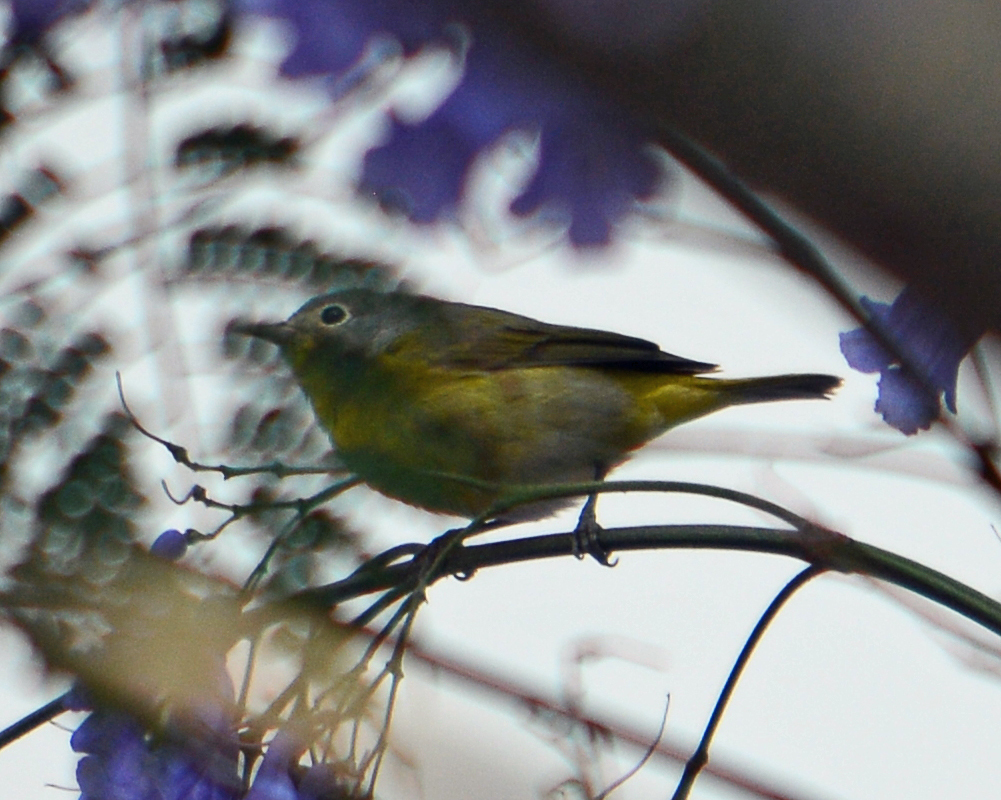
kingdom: Animalia
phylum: Chordata
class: Aves
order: Passeriformes
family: Parulidae
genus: Leiothlypis
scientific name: Leiothlypis ruficapilla
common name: Nashville warbler
